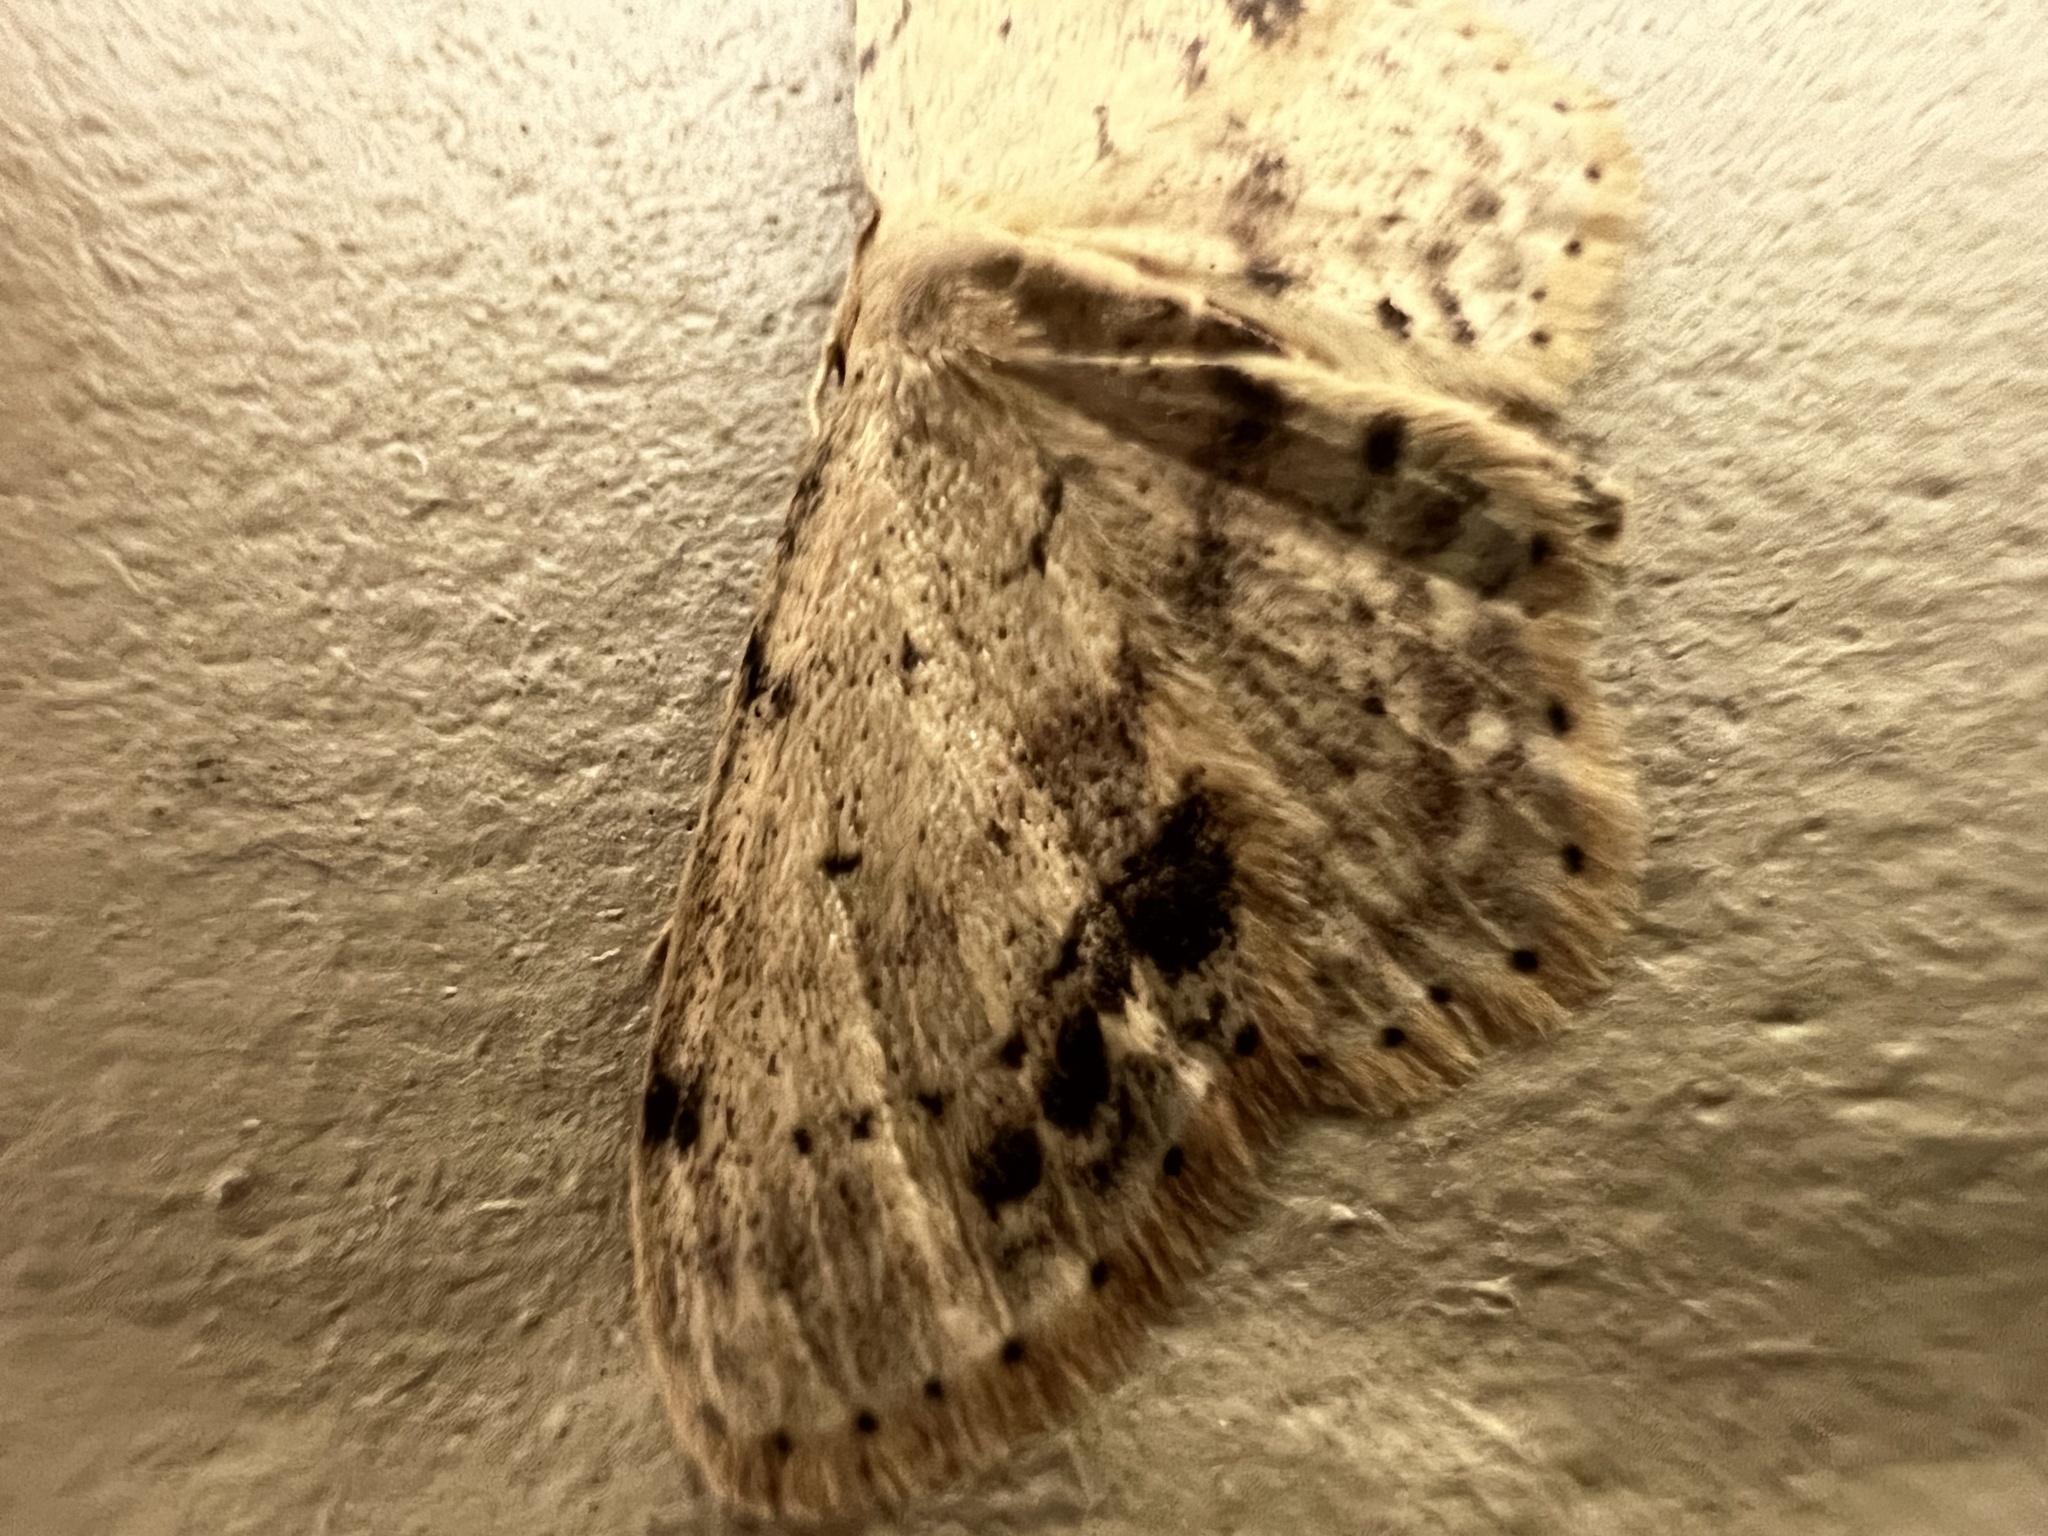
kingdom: Animalia
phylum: Arthropoda
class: Insecta
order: Lepidoptera
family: Geometridae
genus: Idaea
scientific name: Idaea dimidiata
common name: Single-dotted wave
